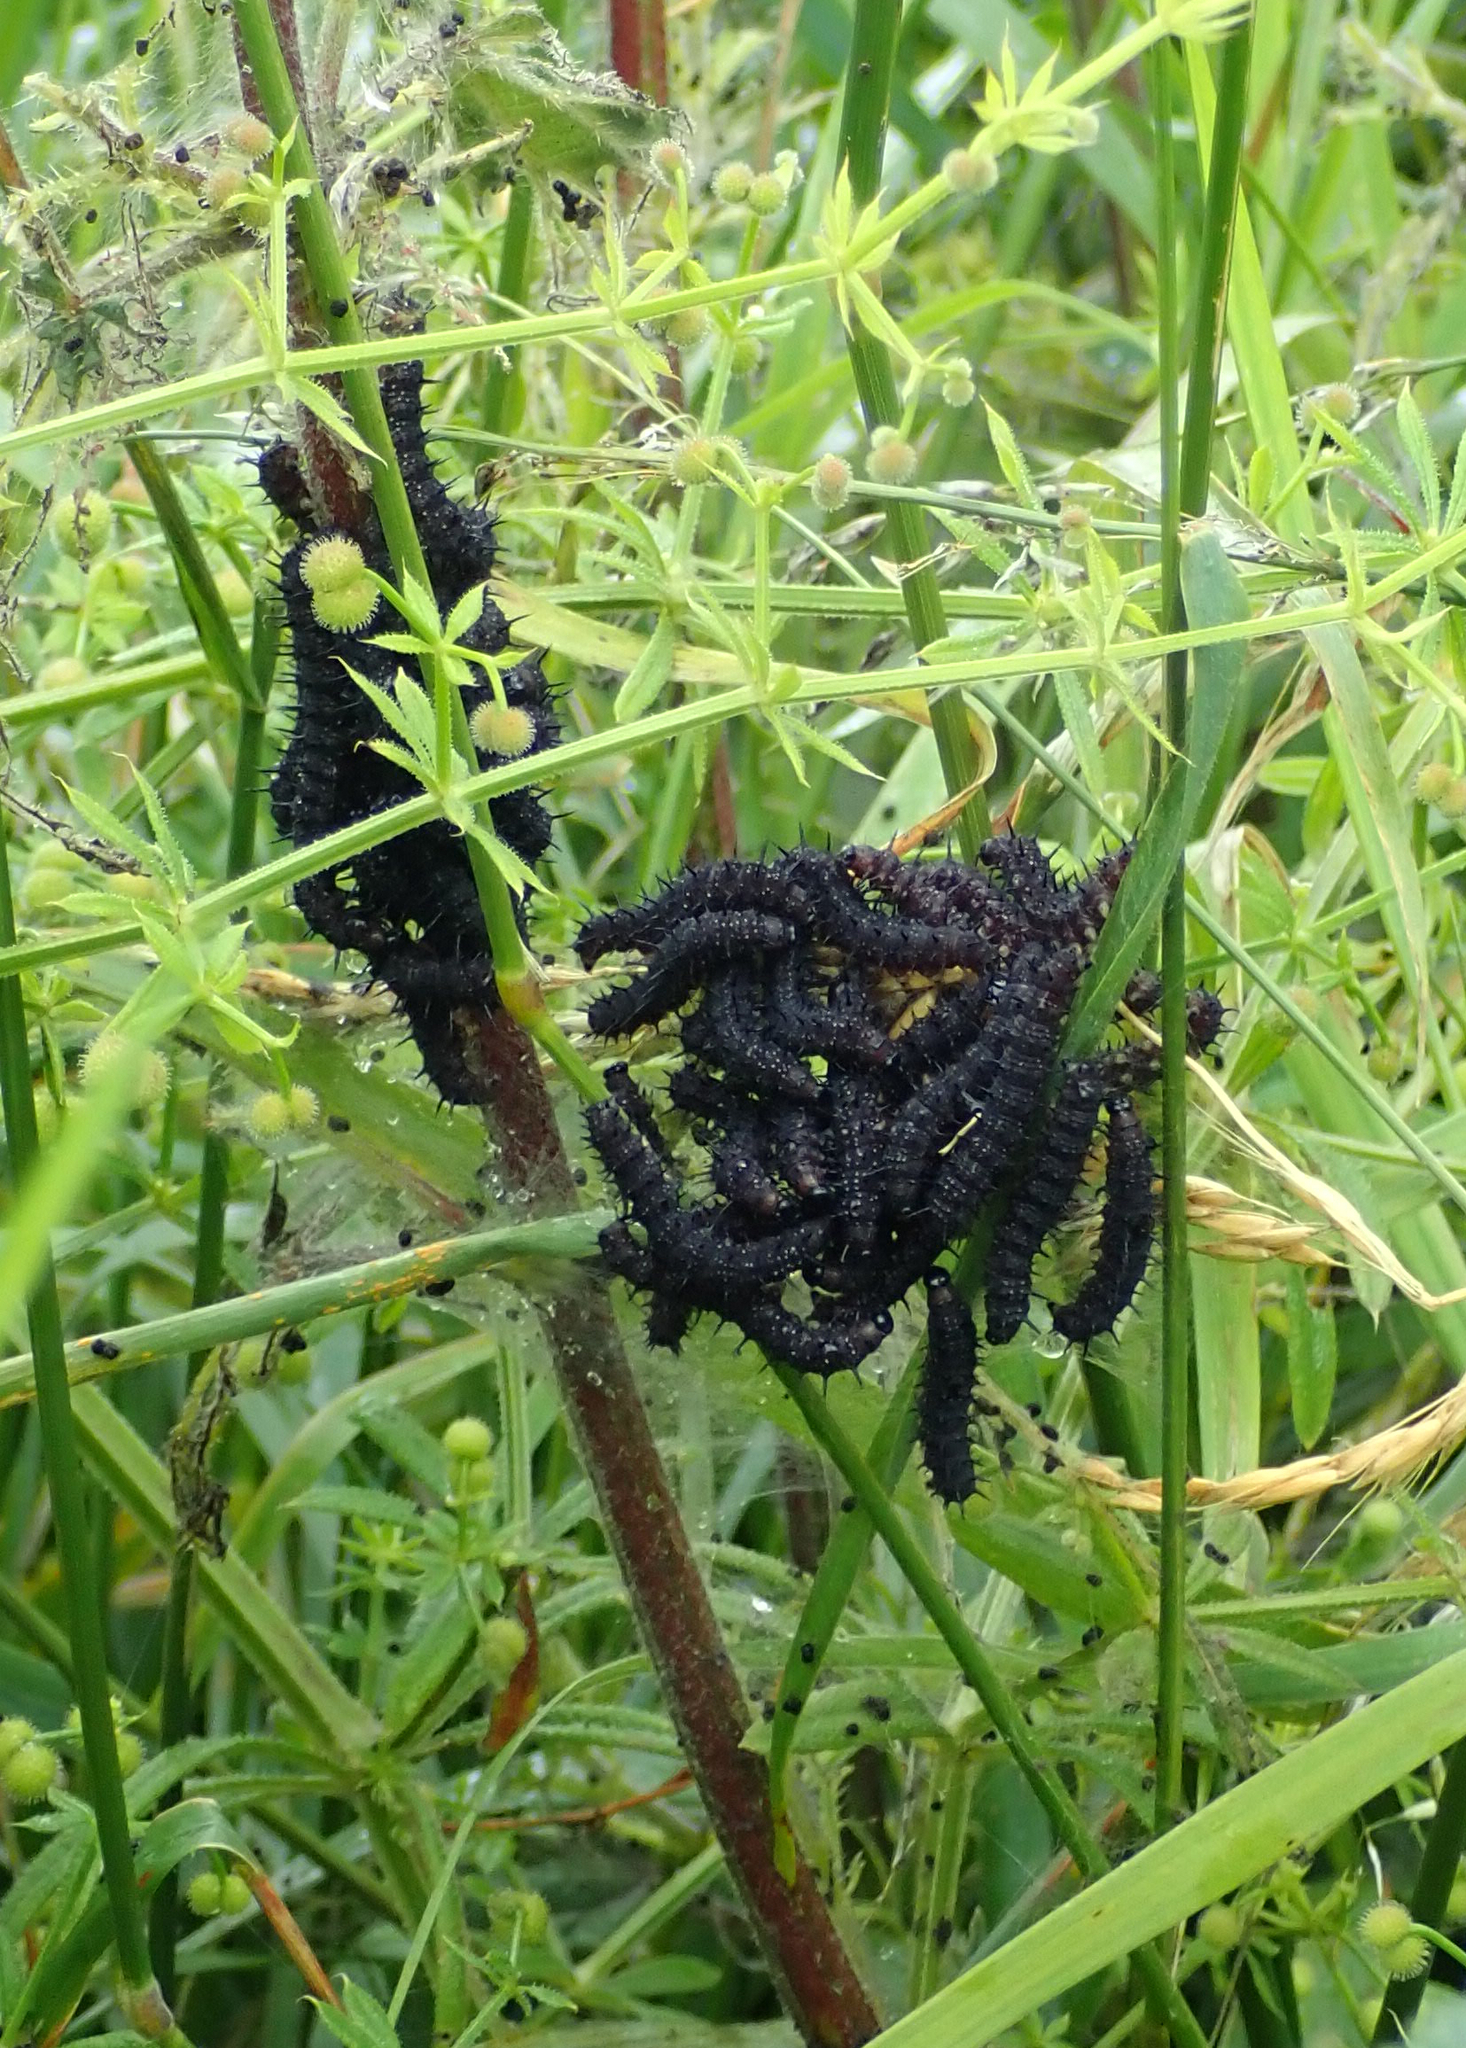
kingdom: Animalia
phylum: Arthropoda
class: Insecta
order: Lepidoptera
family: Nymphalidae
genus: Aglais
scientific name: Aglais io
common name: Peacock
